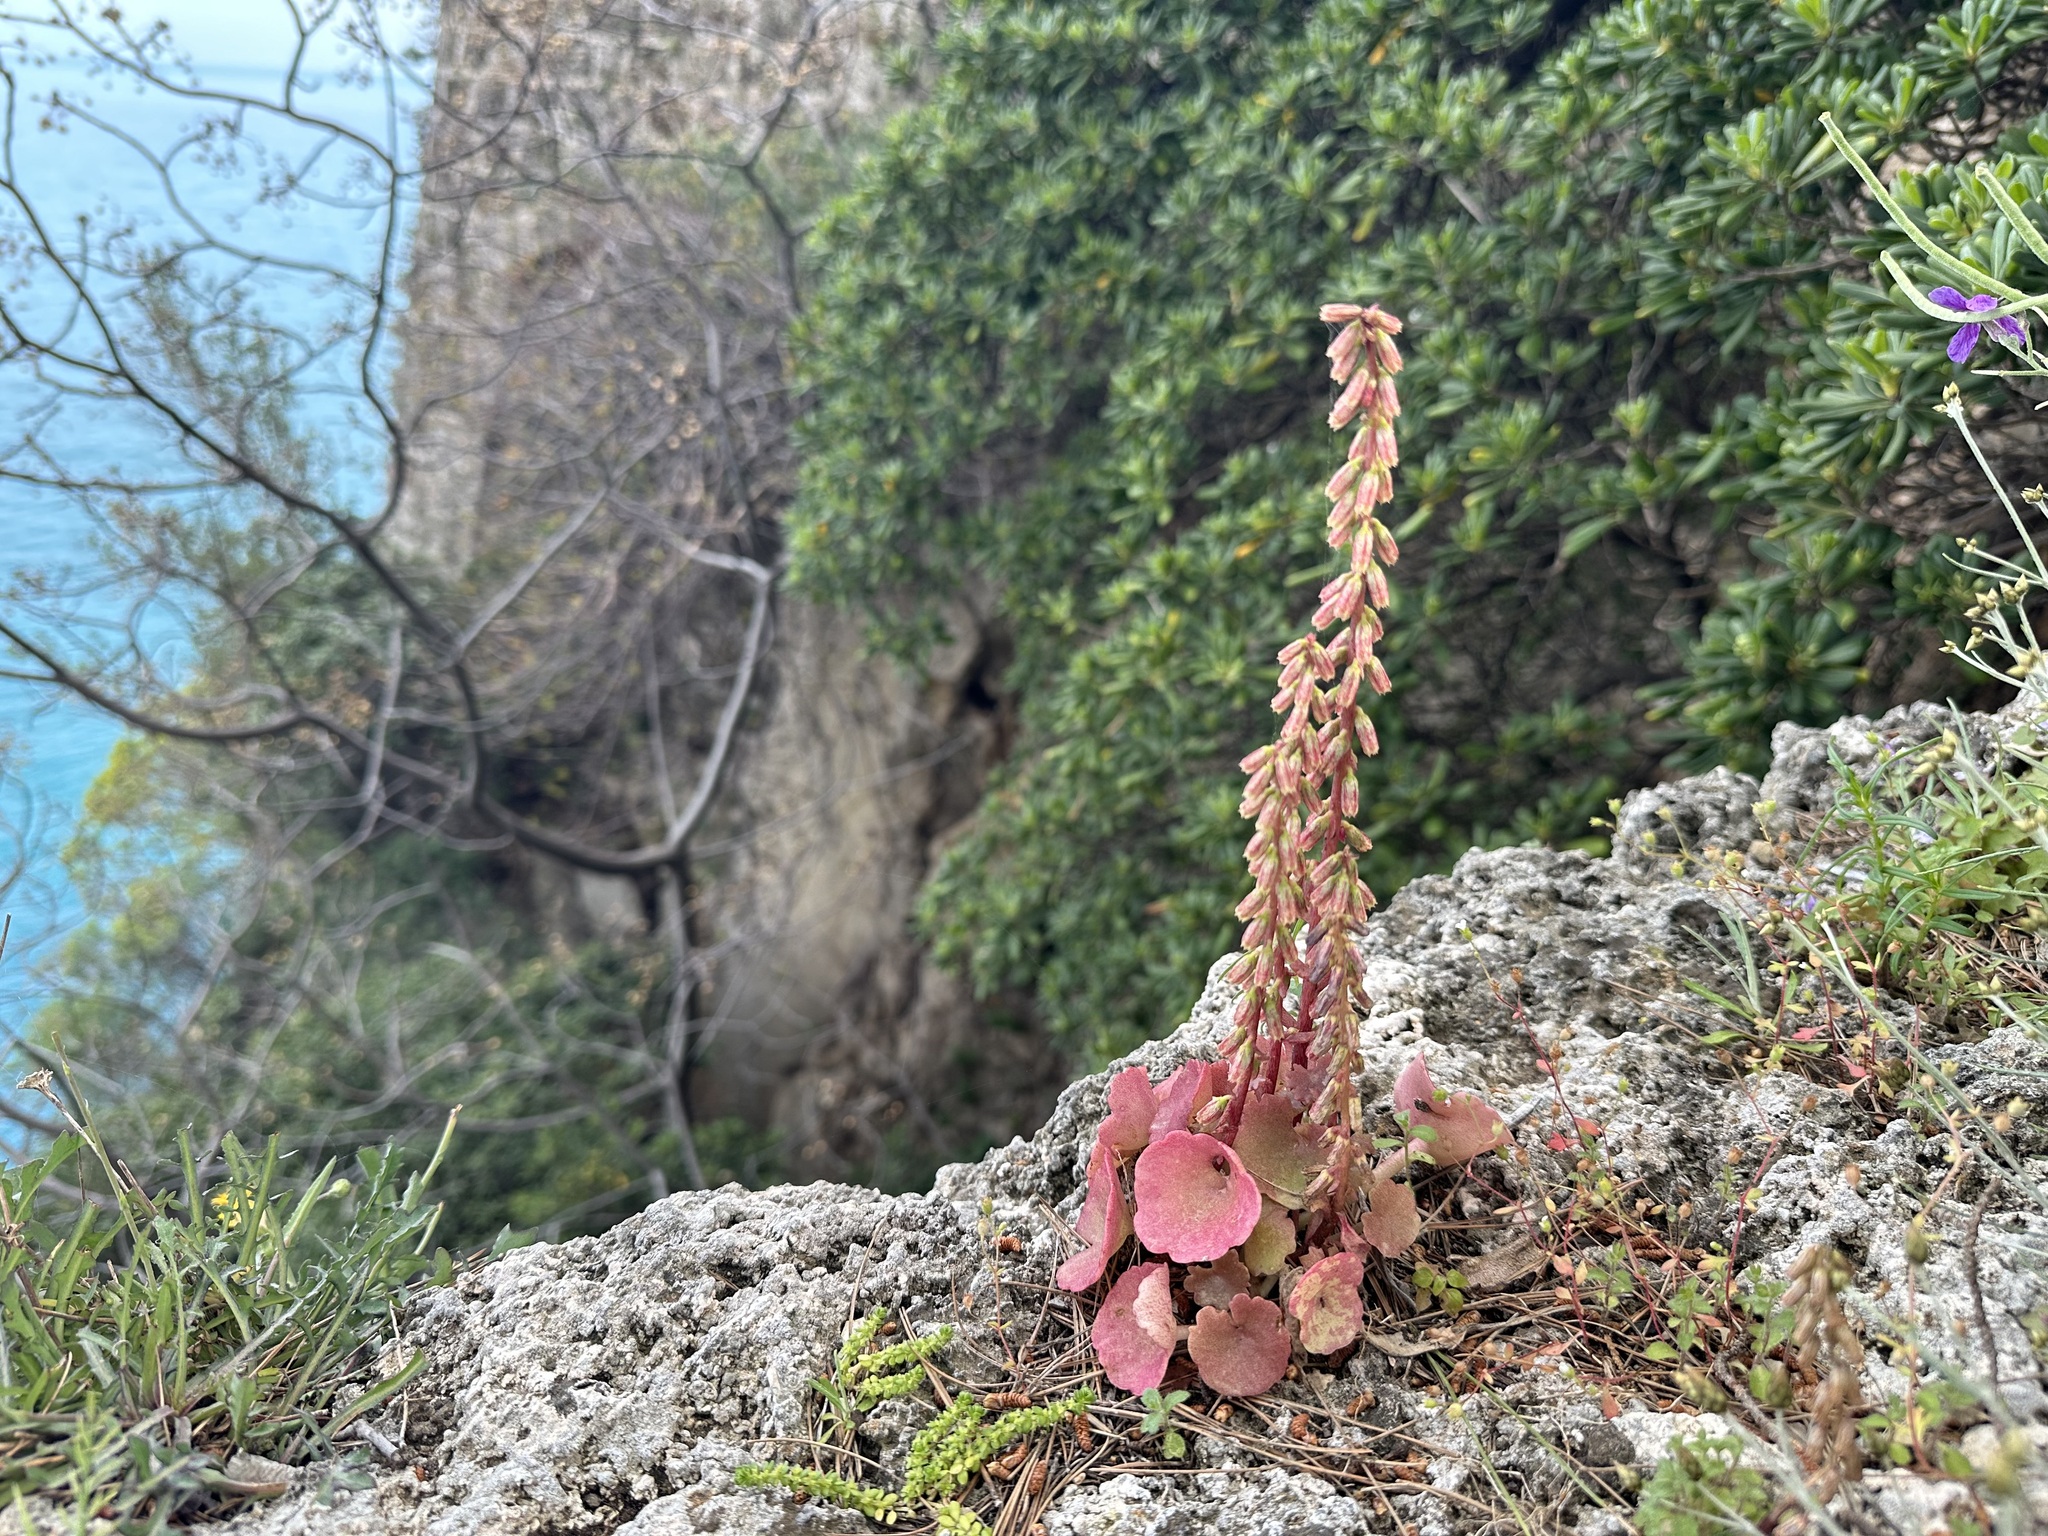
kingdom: Plantae
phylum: Tracheophyta
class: Magnoliopsida
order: Saxifragales
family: Crassulaceae
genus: Umbilicus
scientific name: Umbilicus rupestris
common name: Navelwort
